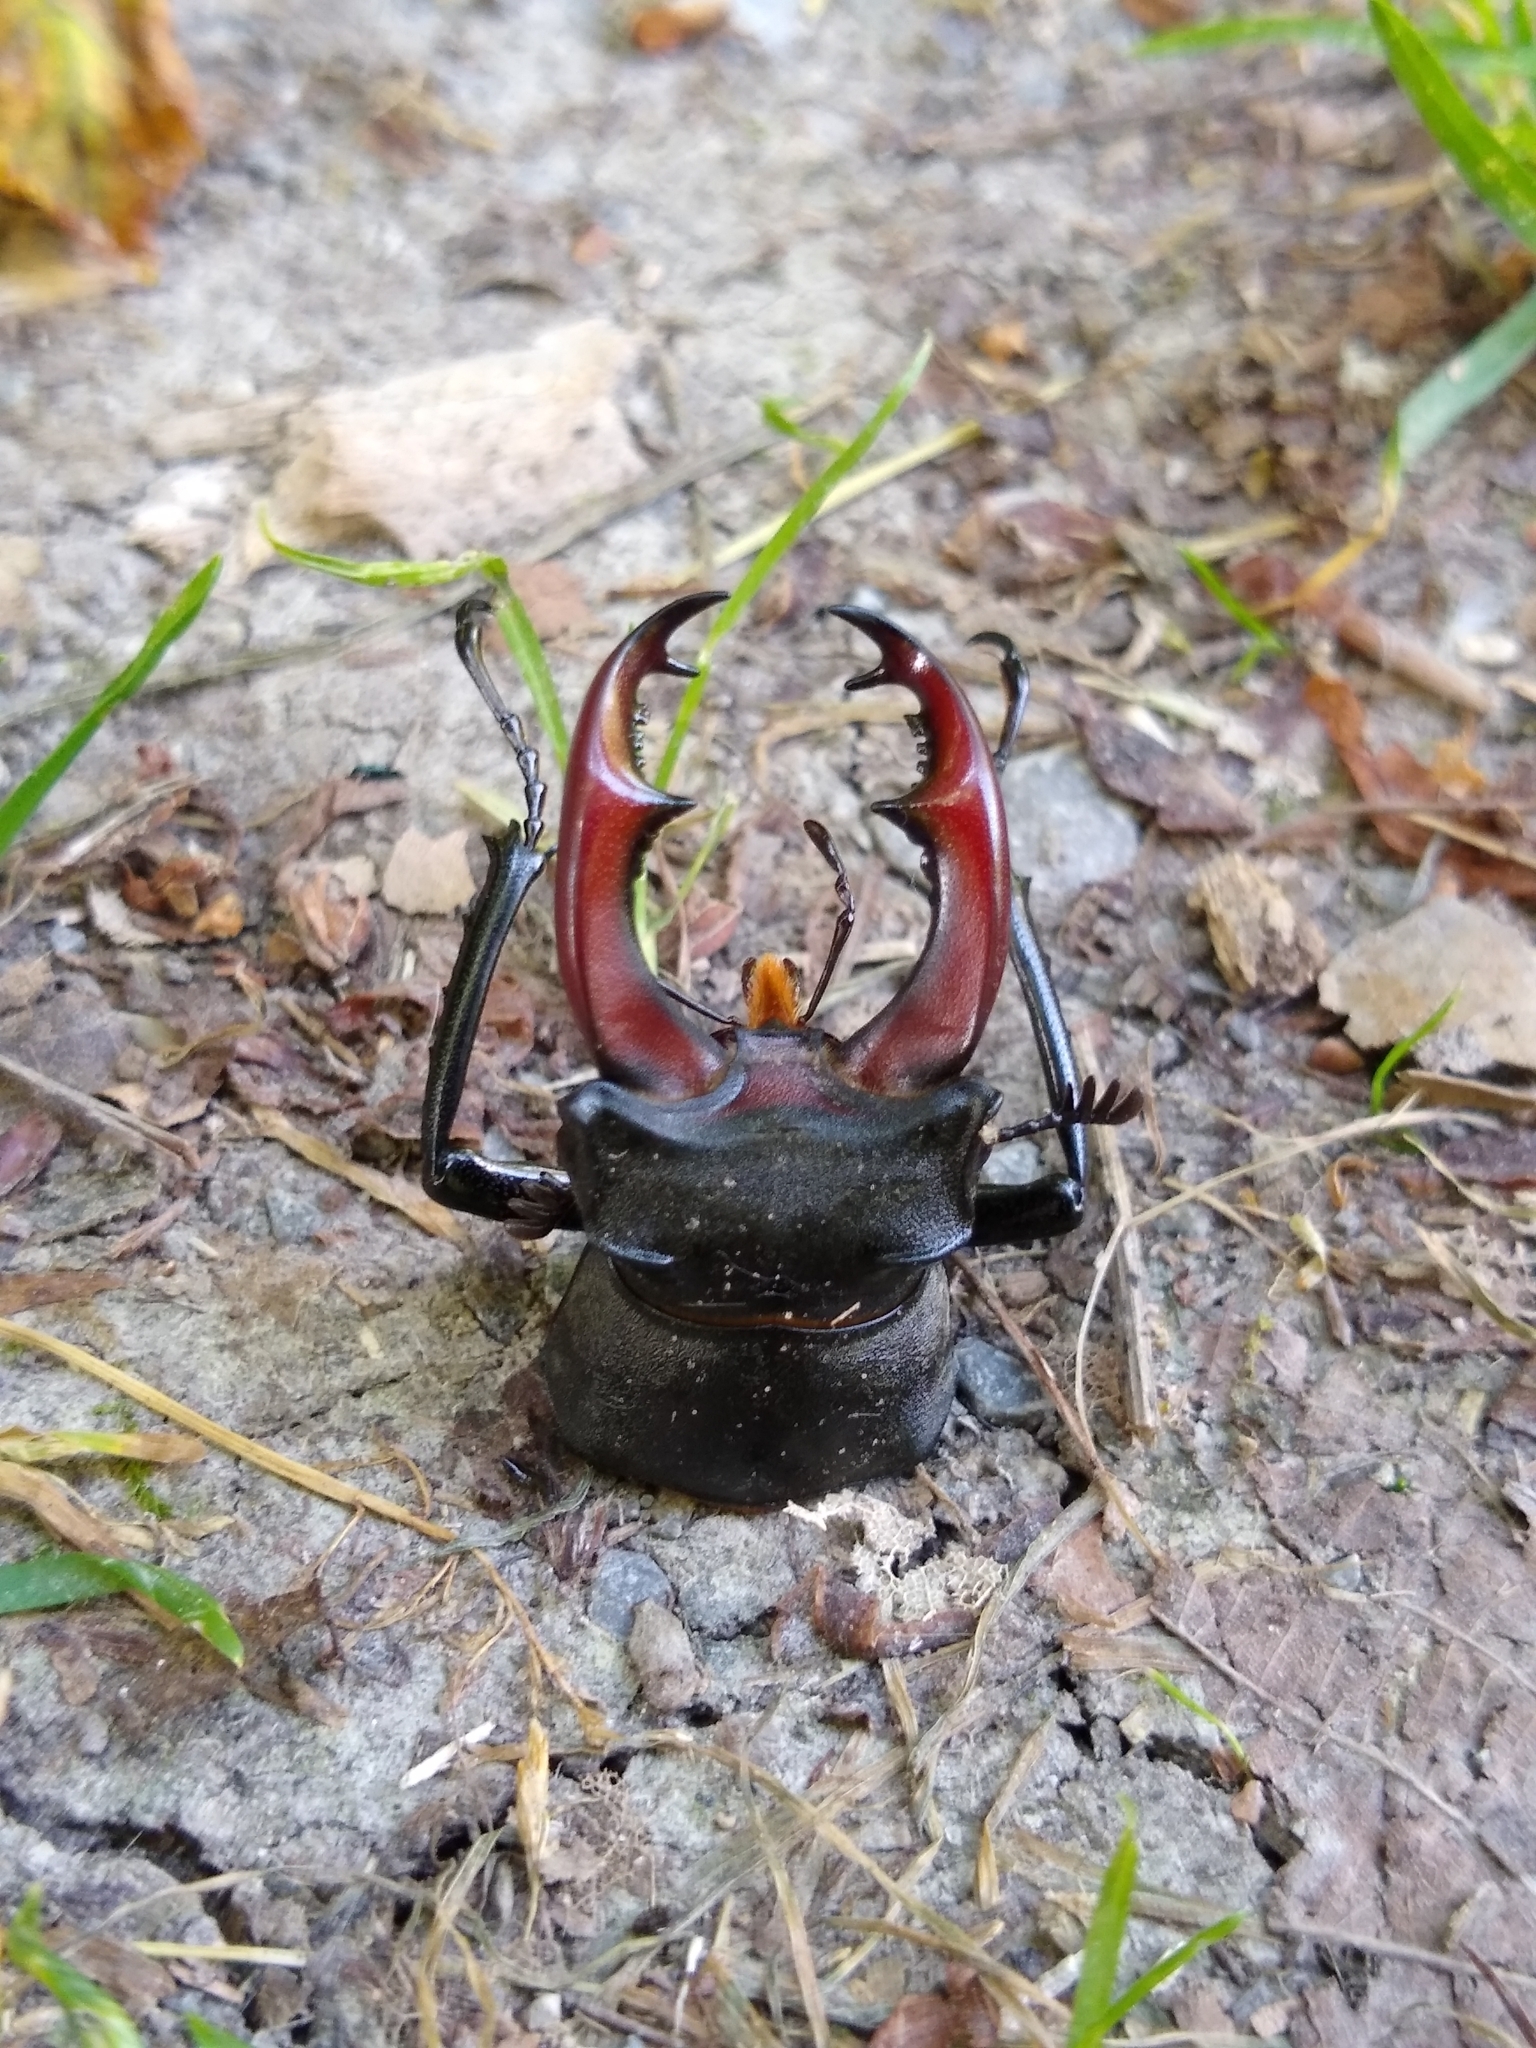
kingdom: Animalia
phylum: Arthropoda
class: Insecta
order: Coleoptera
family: Lucanidae
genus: Lucanus
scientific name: Lucanus cervus
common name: Stag beetle
